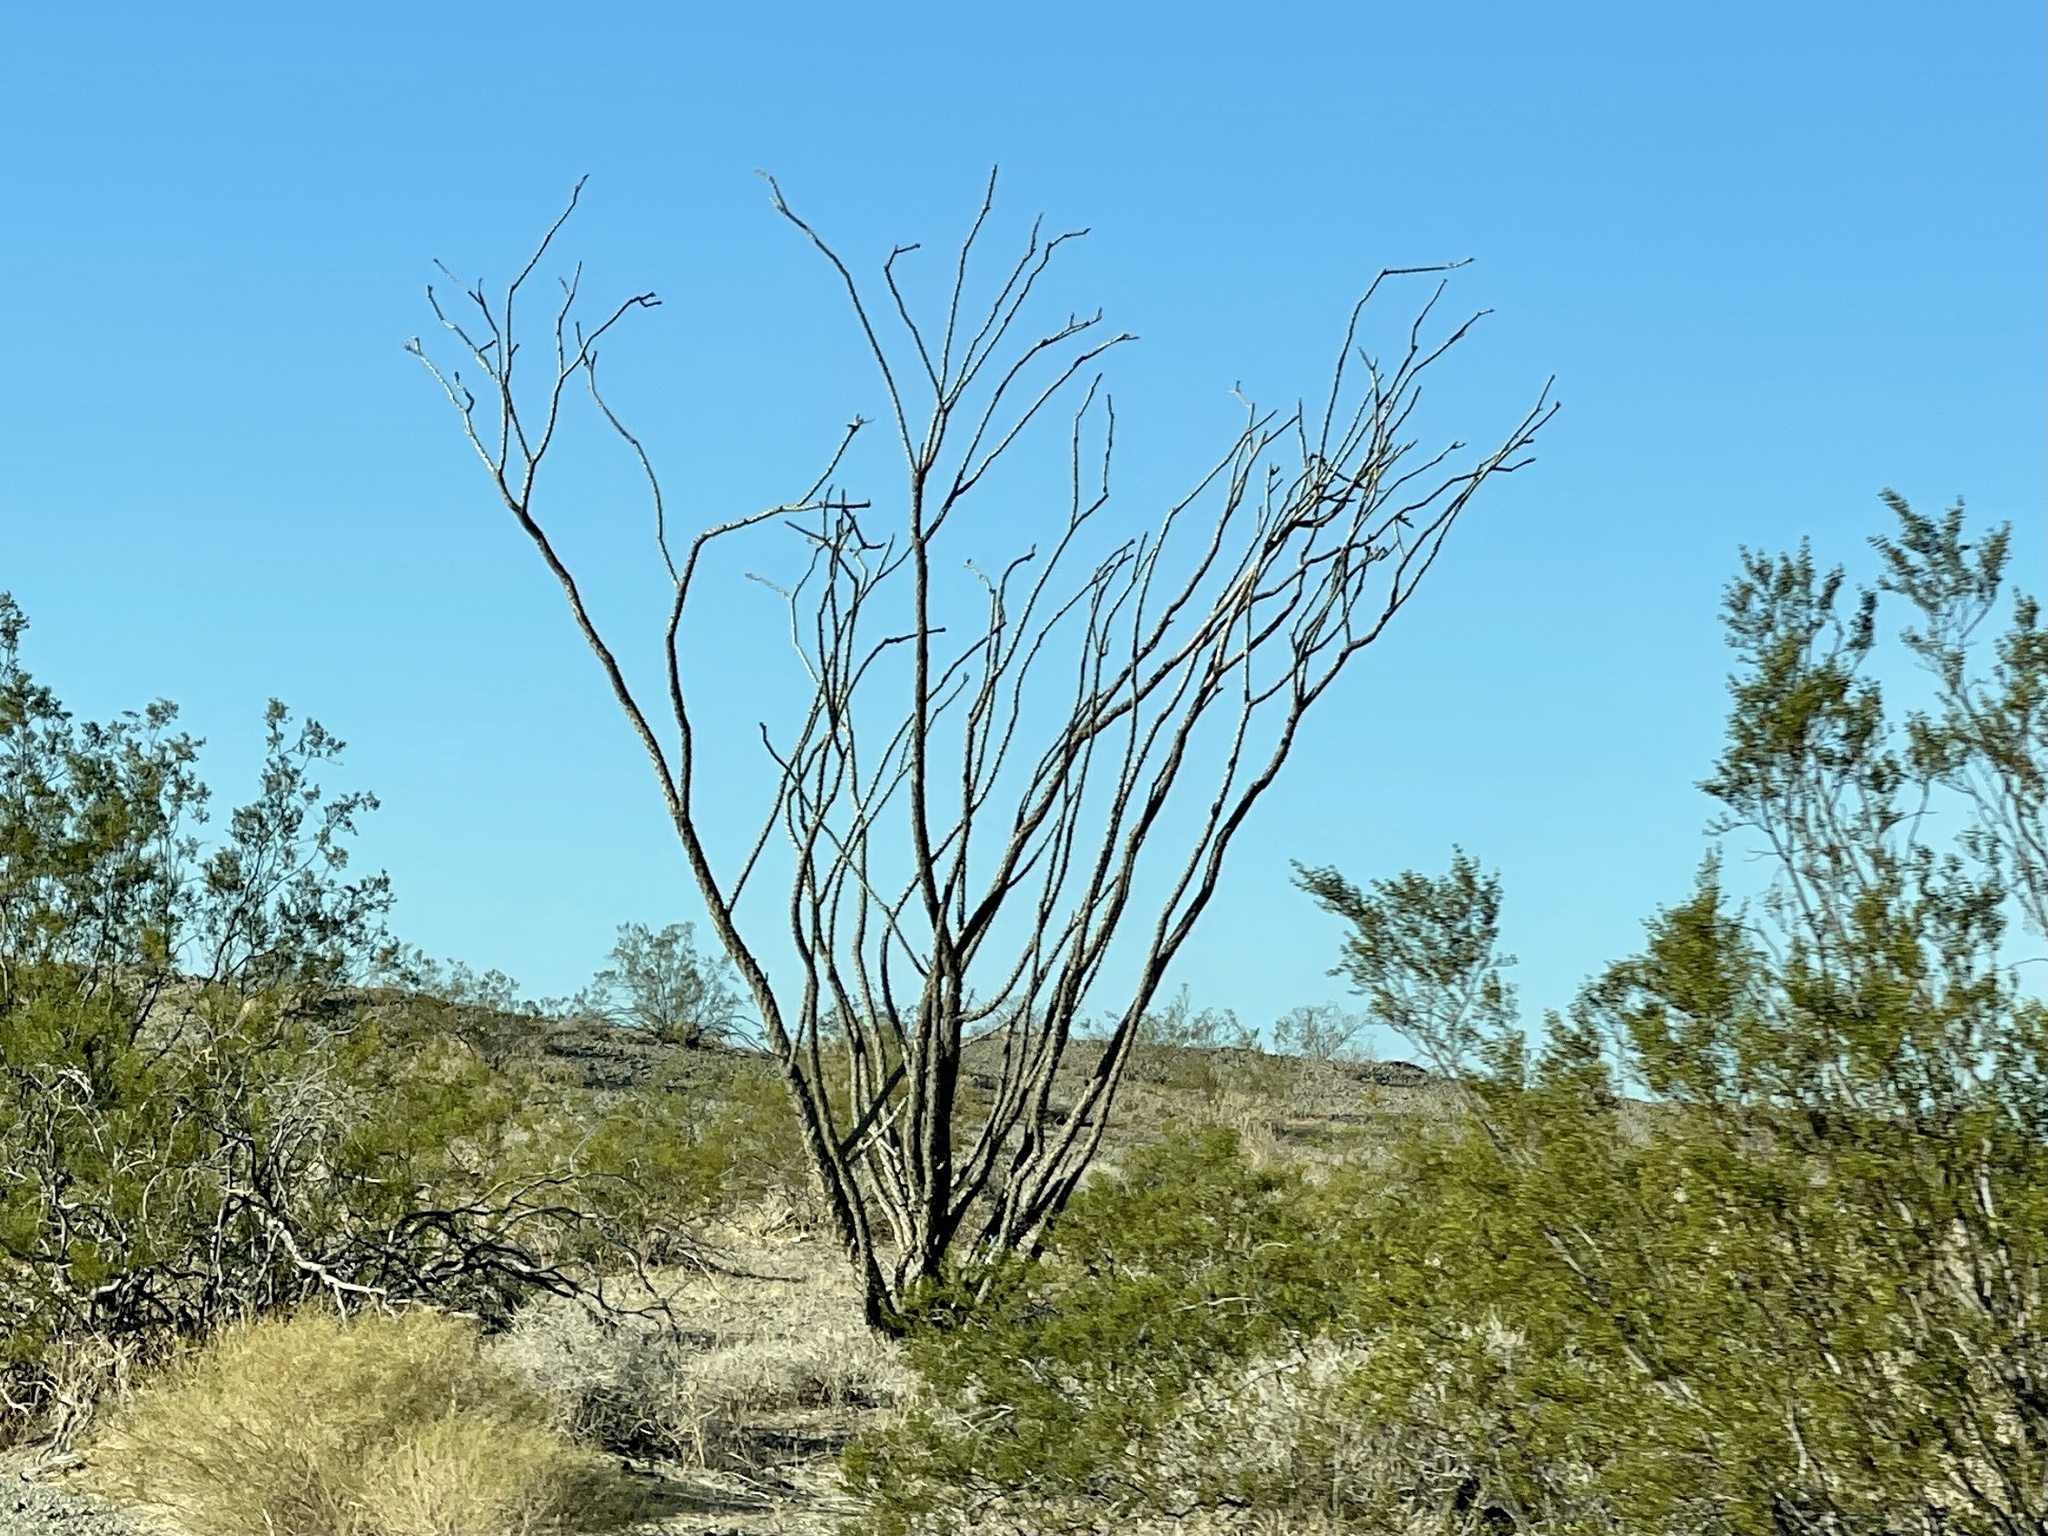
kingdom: Plantae
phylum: Tracheophyta
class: Magnoliopsida
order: Ericales
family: Fouquieriaceae
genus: Fouquieria
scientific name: Fouquieria splendens
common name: Vine-cactus
